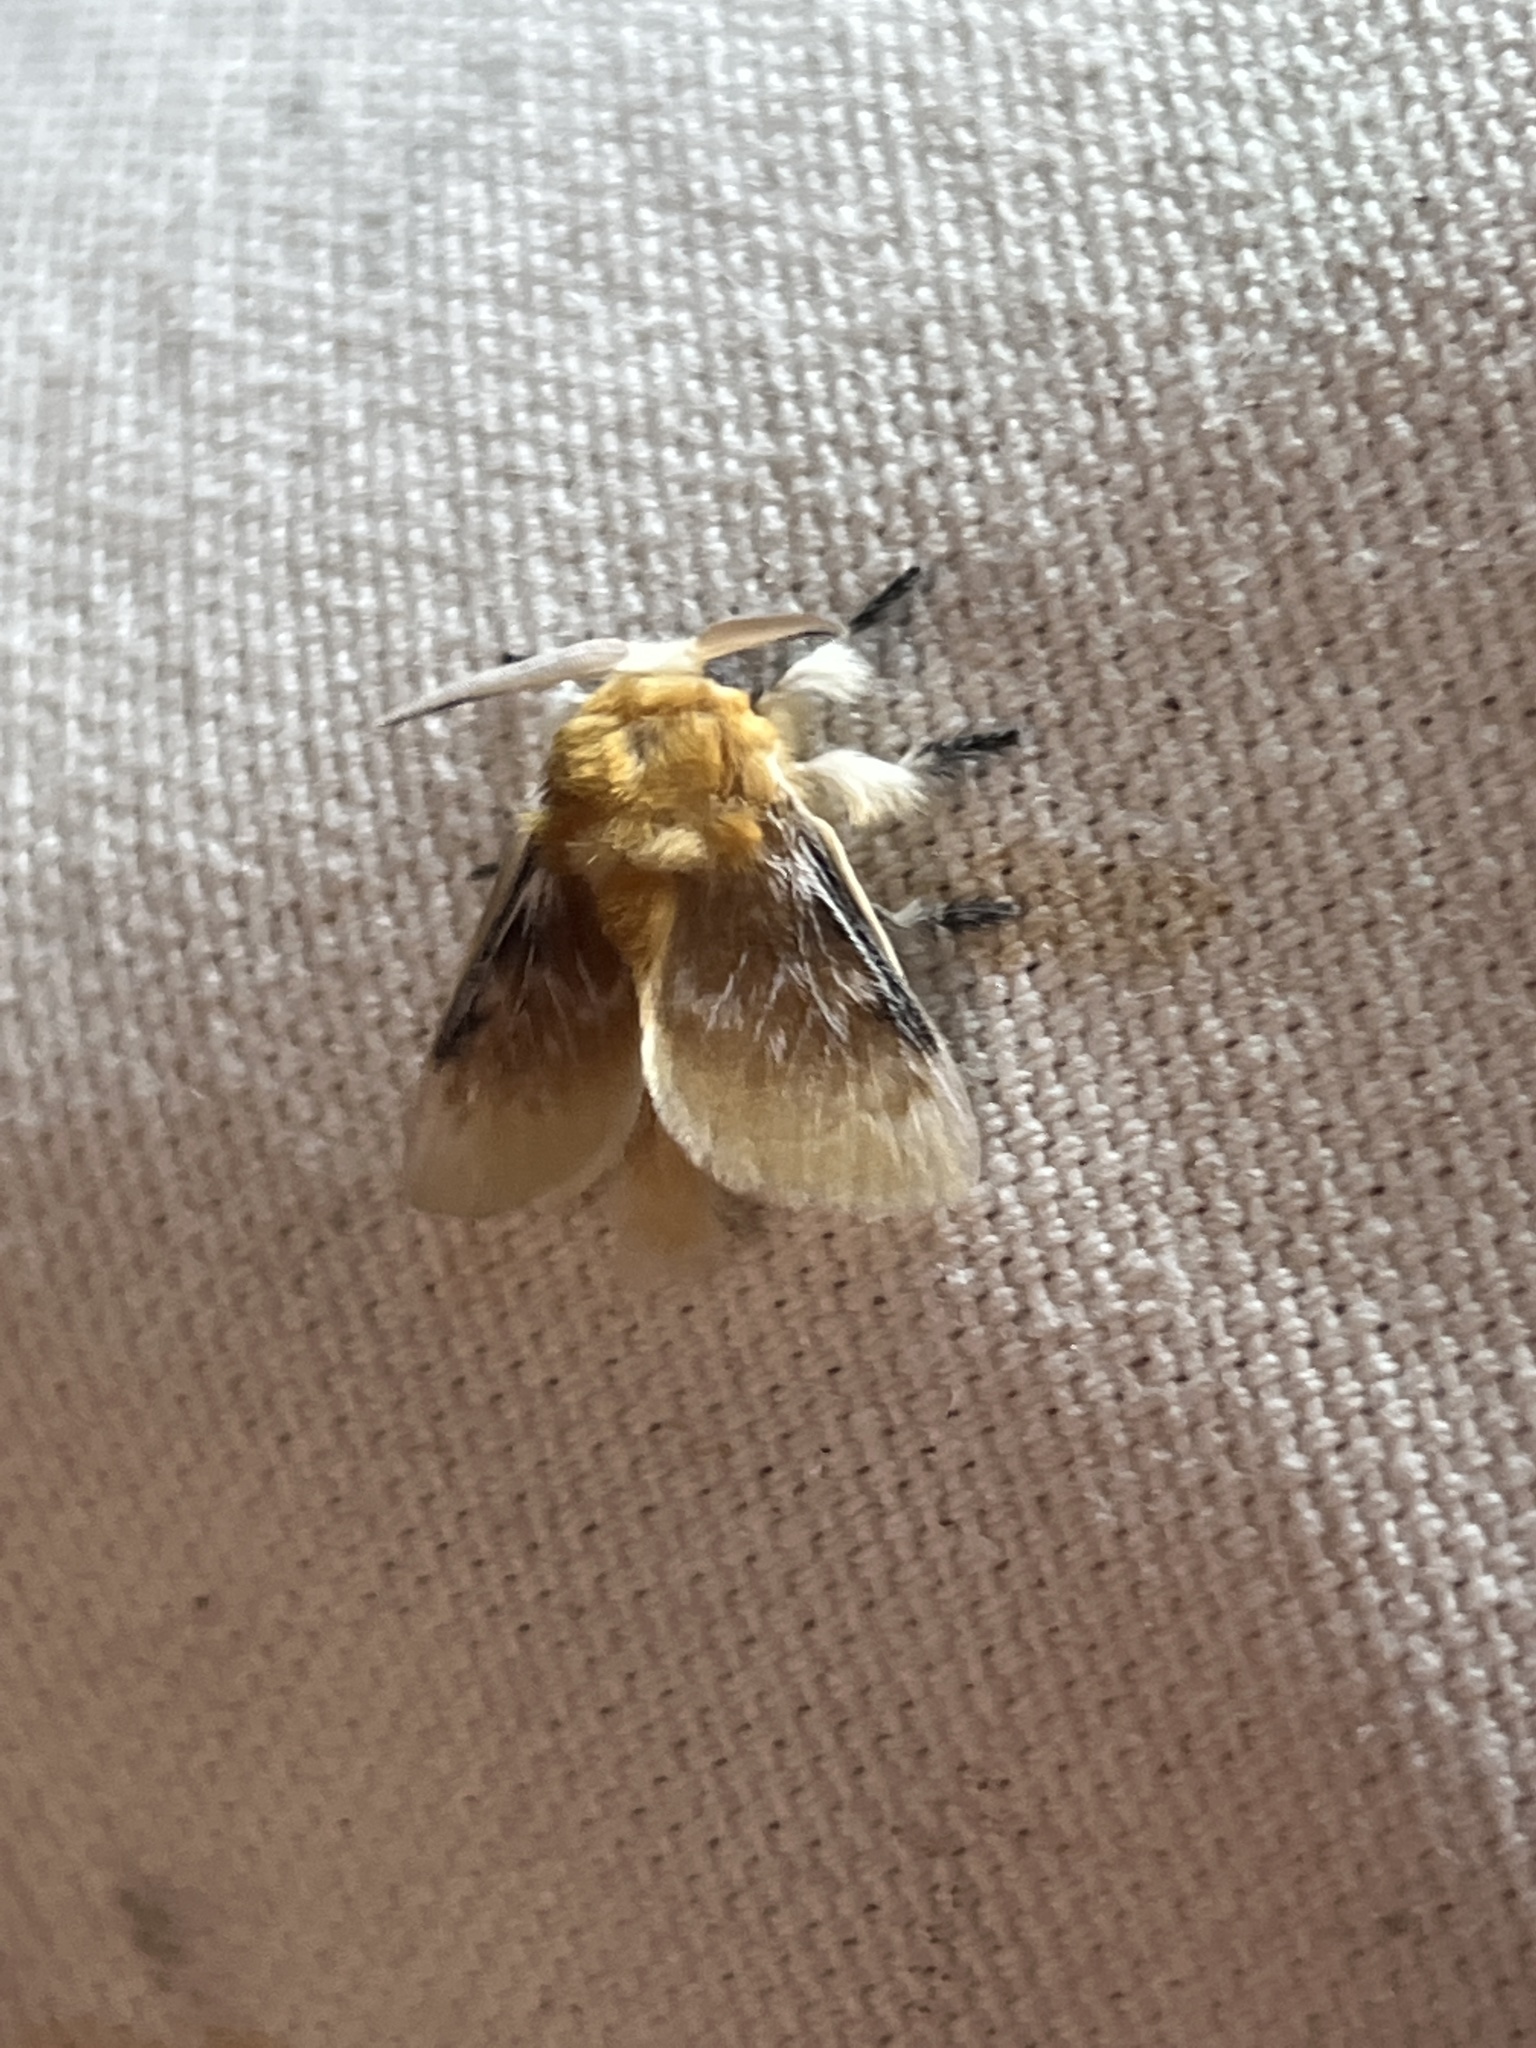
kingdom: Animalia
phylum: Arthropoda
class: Insecta
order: Lepidoptera
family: Megalopygidae
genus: Megalopyge
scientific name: Megalopyge opercularis
